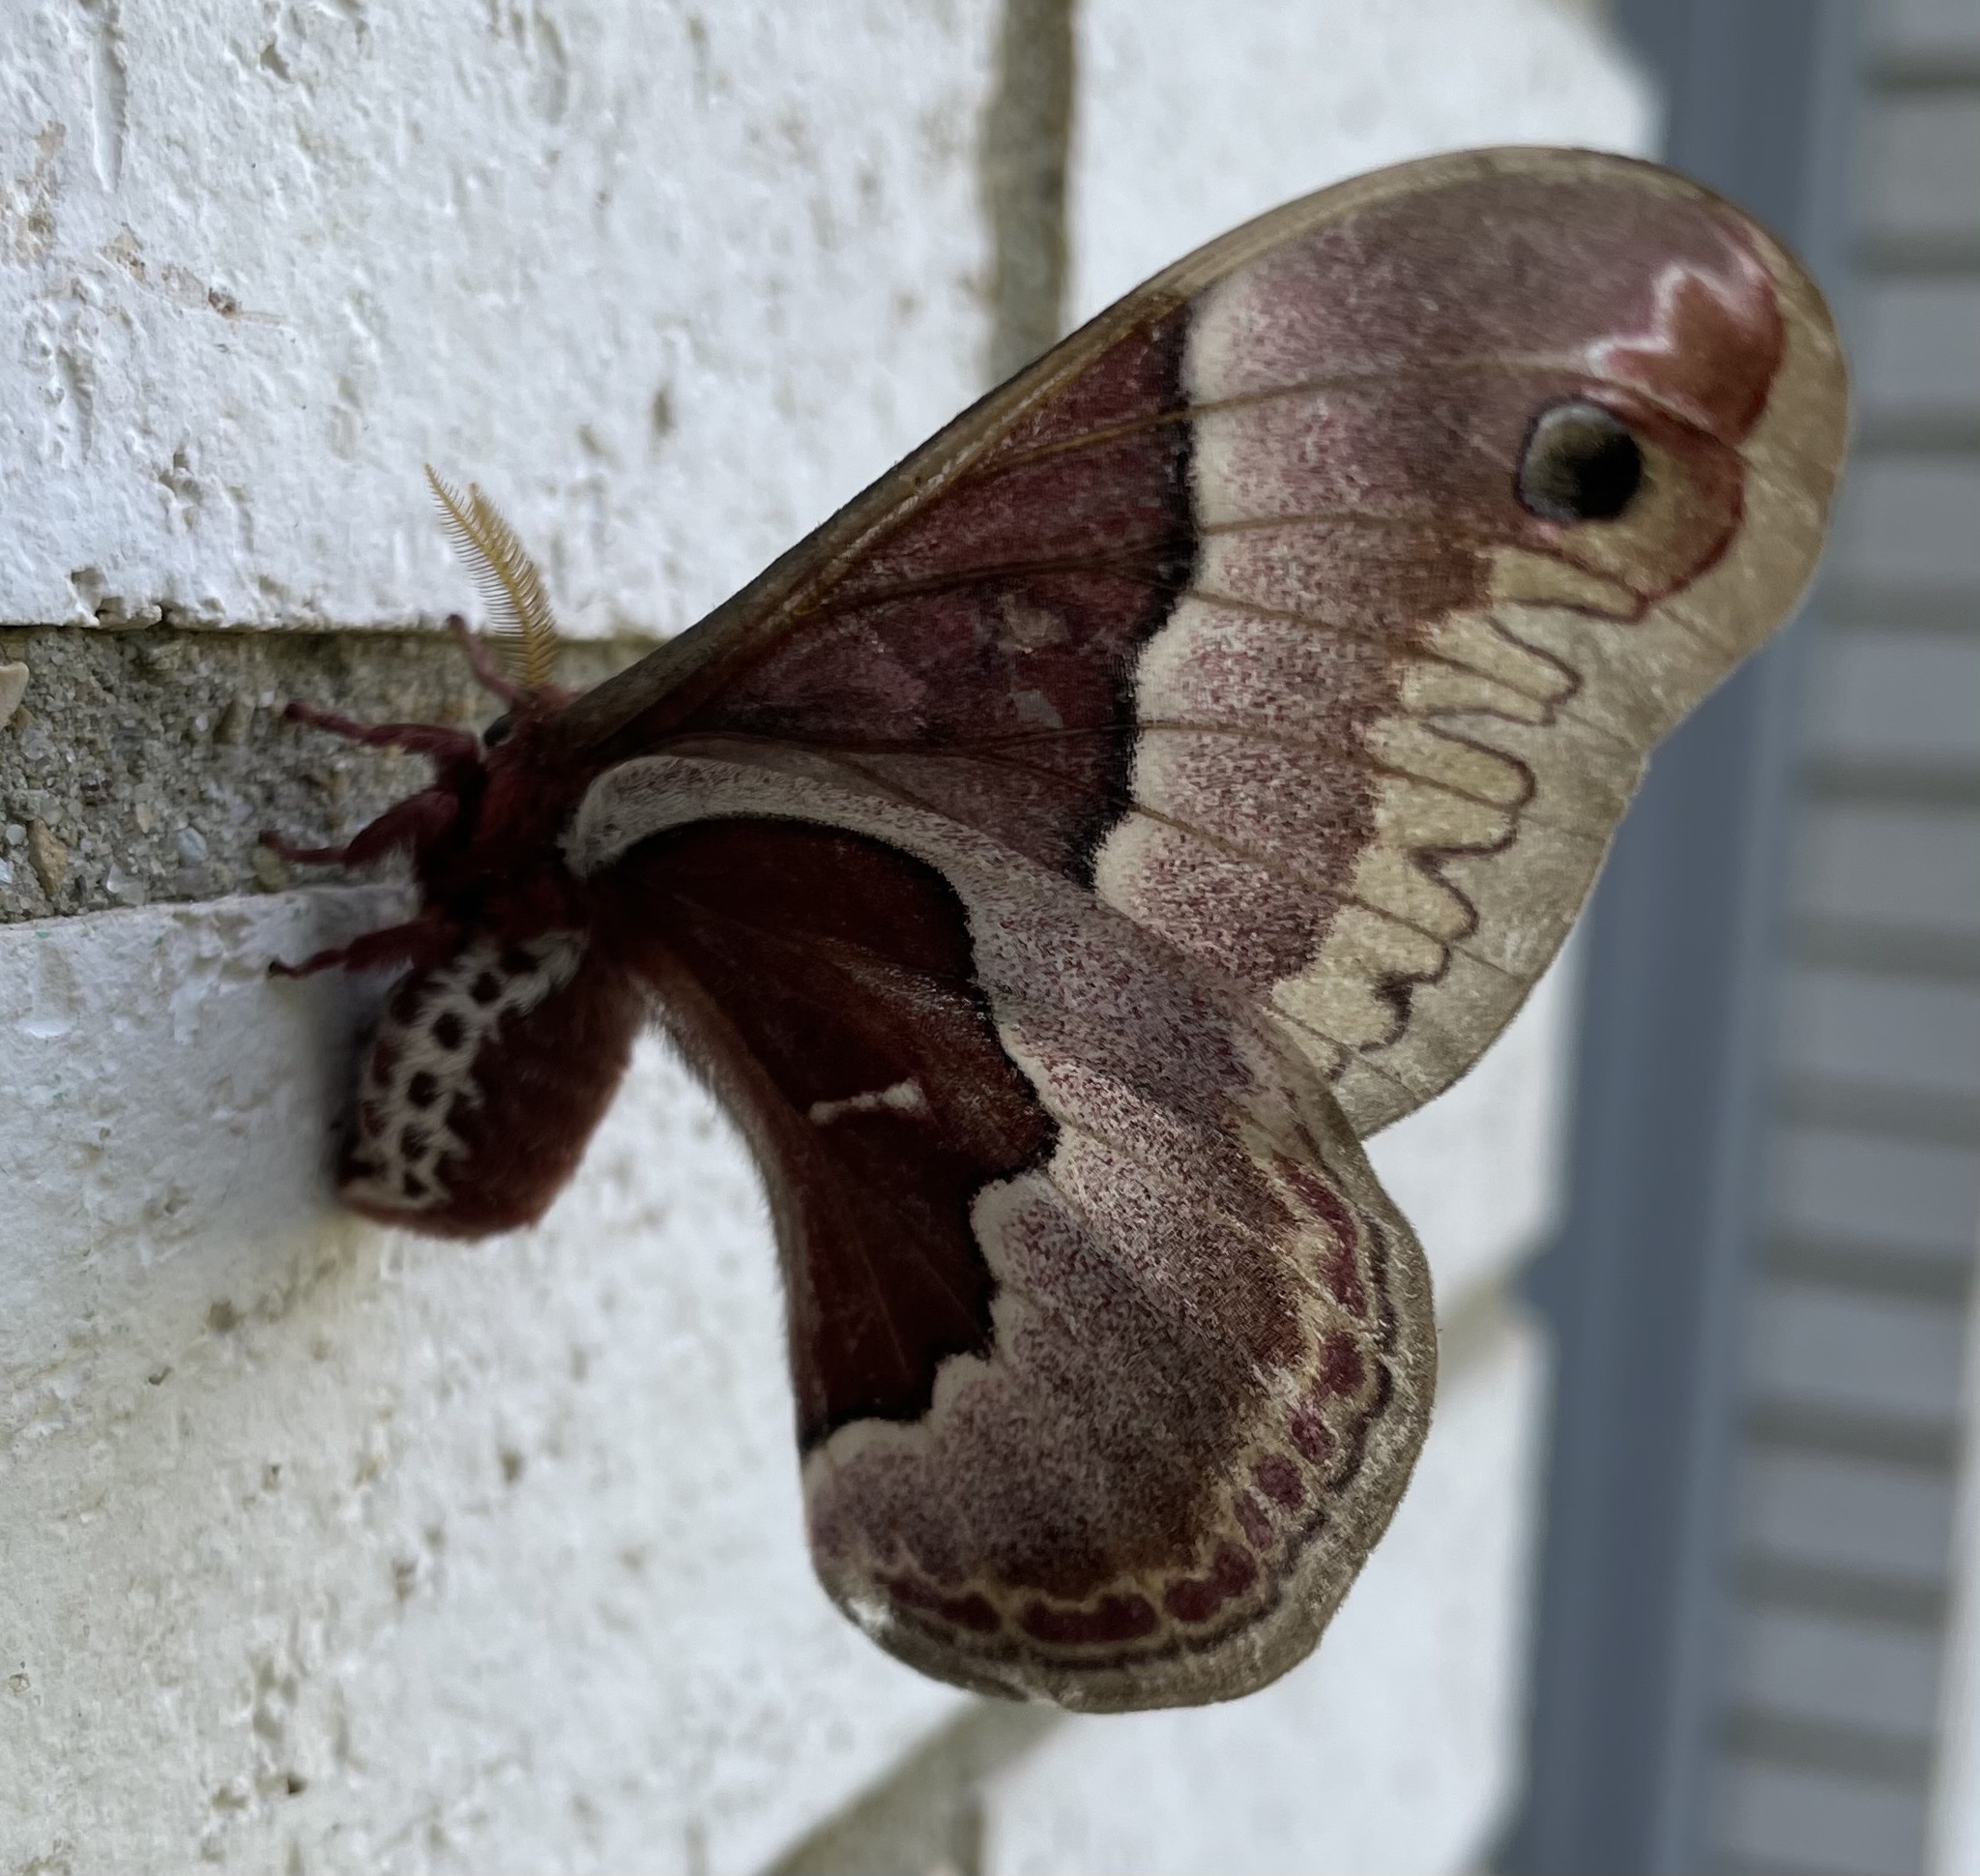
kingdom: Animalia
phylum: Arthropoda
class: Insecta
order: Lepidoptera
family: Saturniidae
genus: Callosamia
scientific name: Callosamia promethea
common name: Promethea silkmoth
